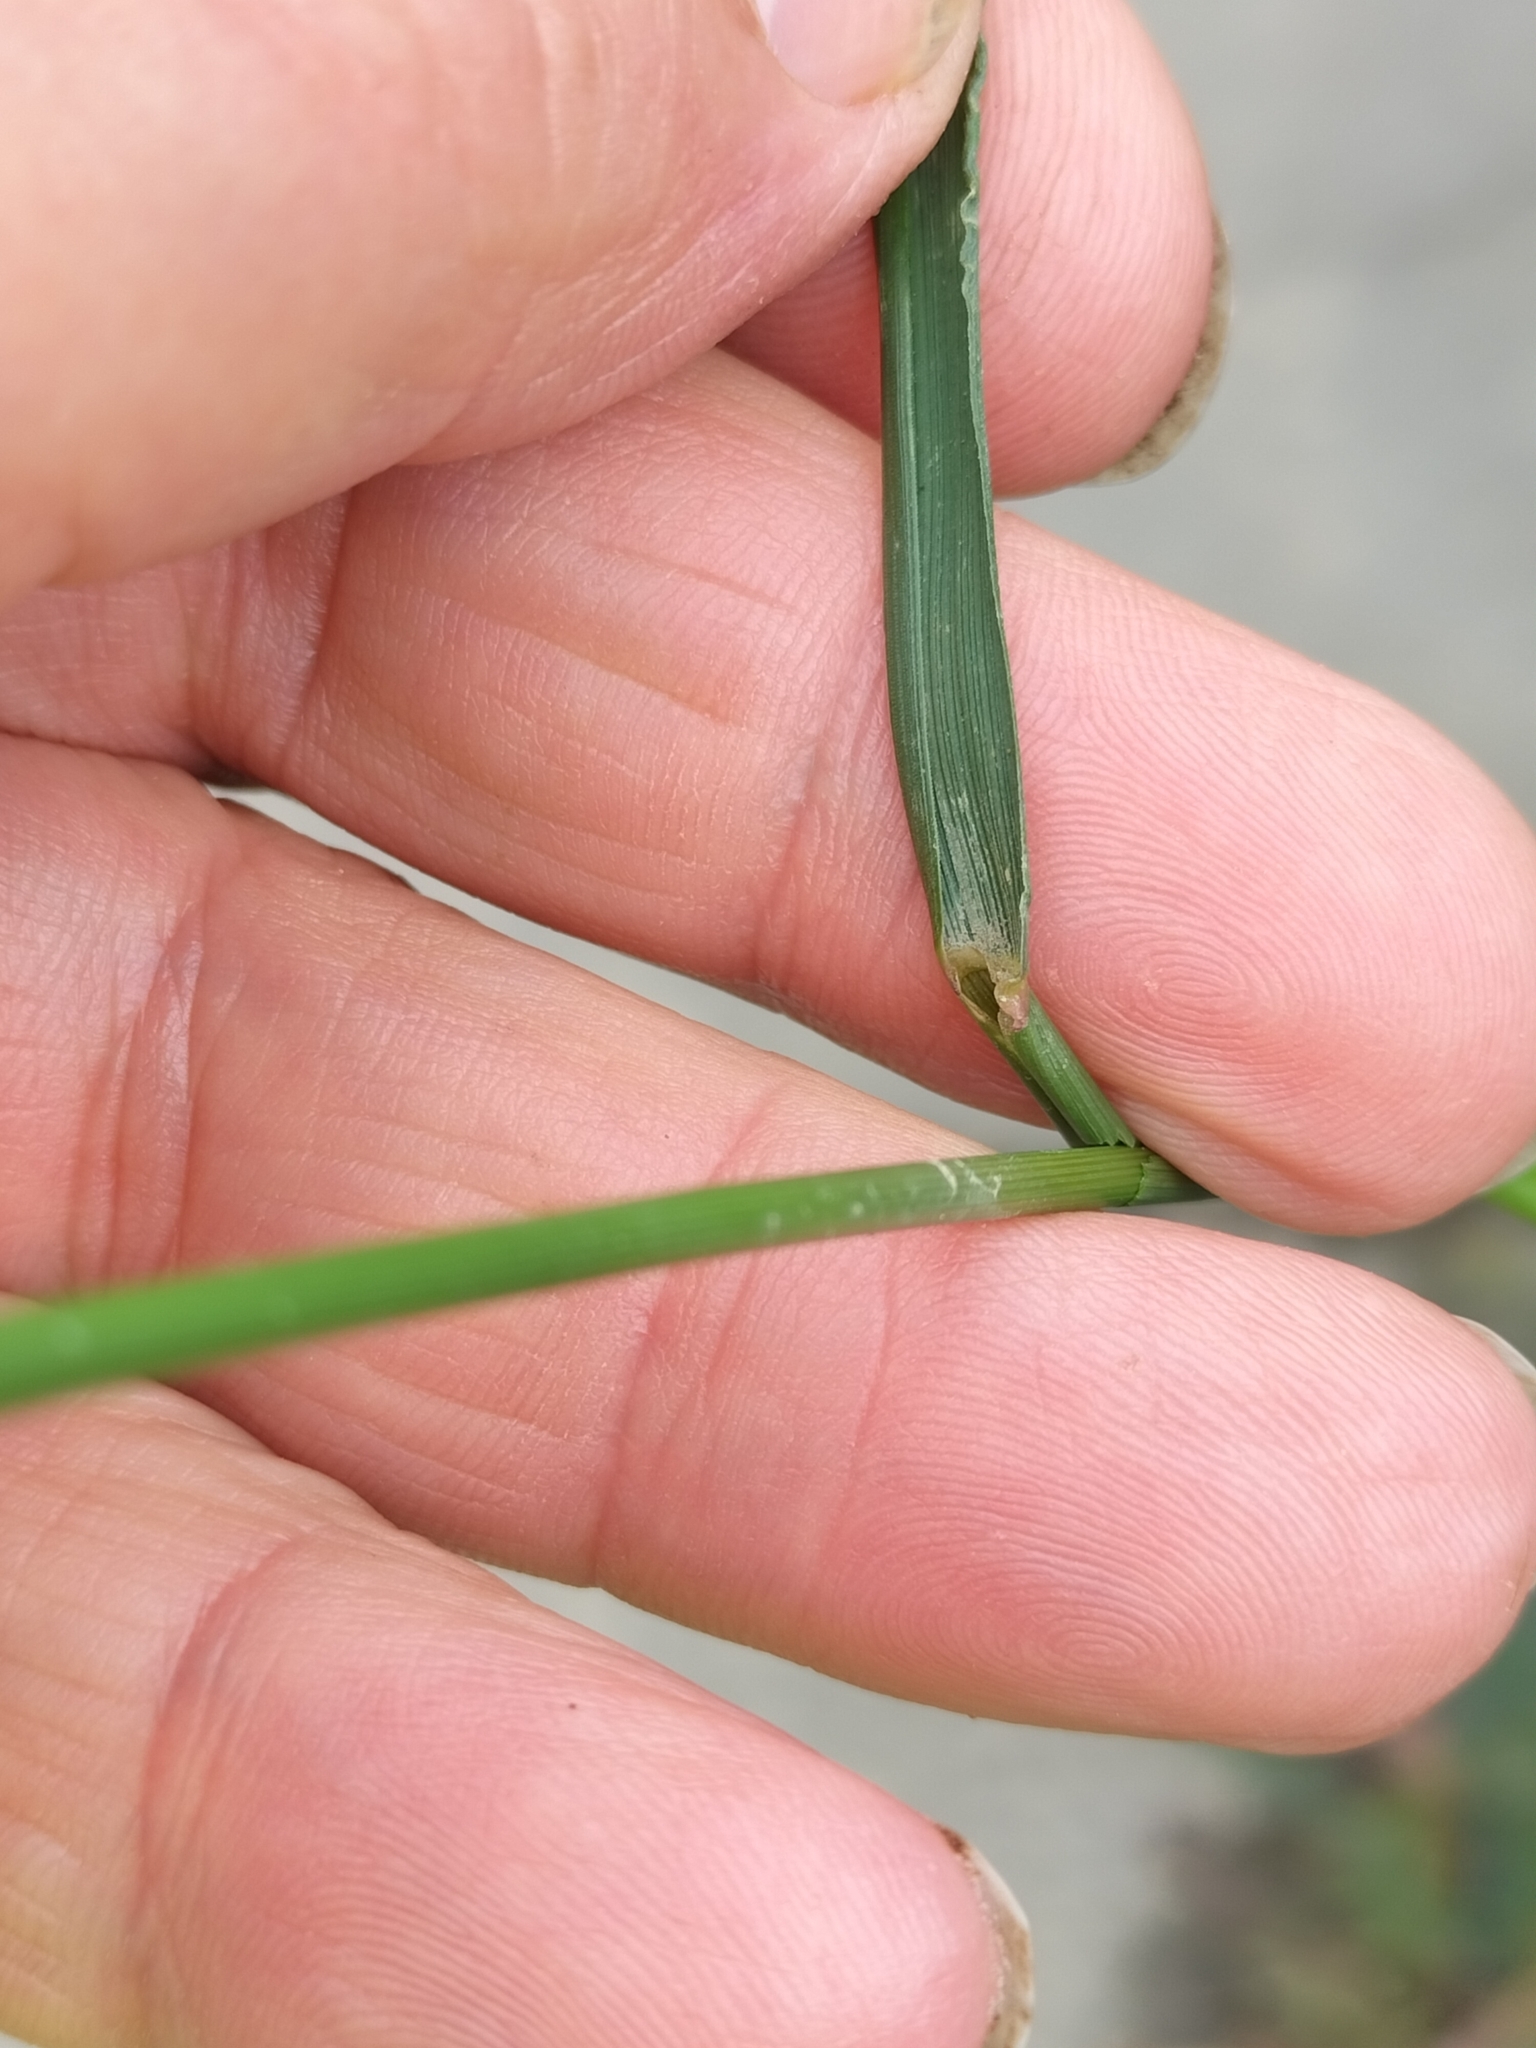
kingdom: Plantae
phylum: Tracheophyta
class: Liliopsida
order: Poales
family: Poaceae
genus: Agrostis
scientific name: Agrostis capillaris
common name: Colonial bentgrass
